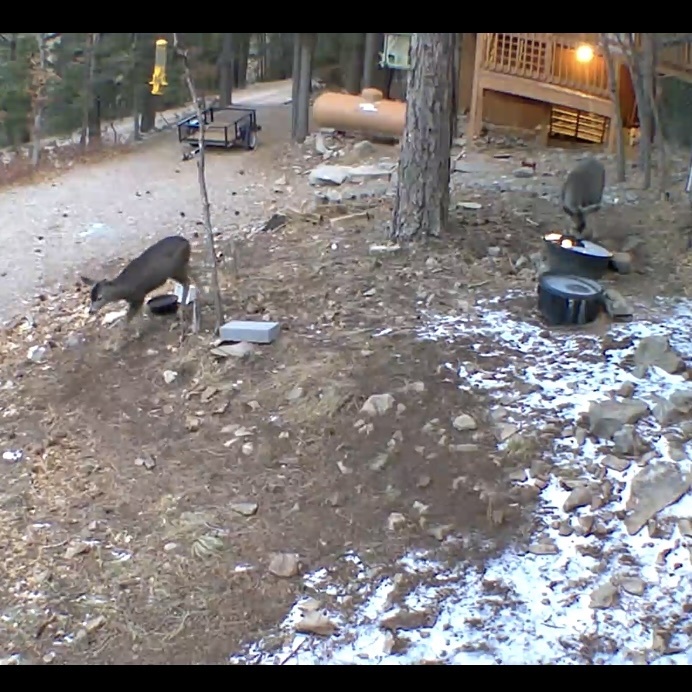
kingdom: Animalia
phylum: Chordata
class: Mammalia
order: Artiodactyla
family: Cervidae
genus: Odocoileus
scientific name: Odocoileus hemionus
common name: Mule deer
